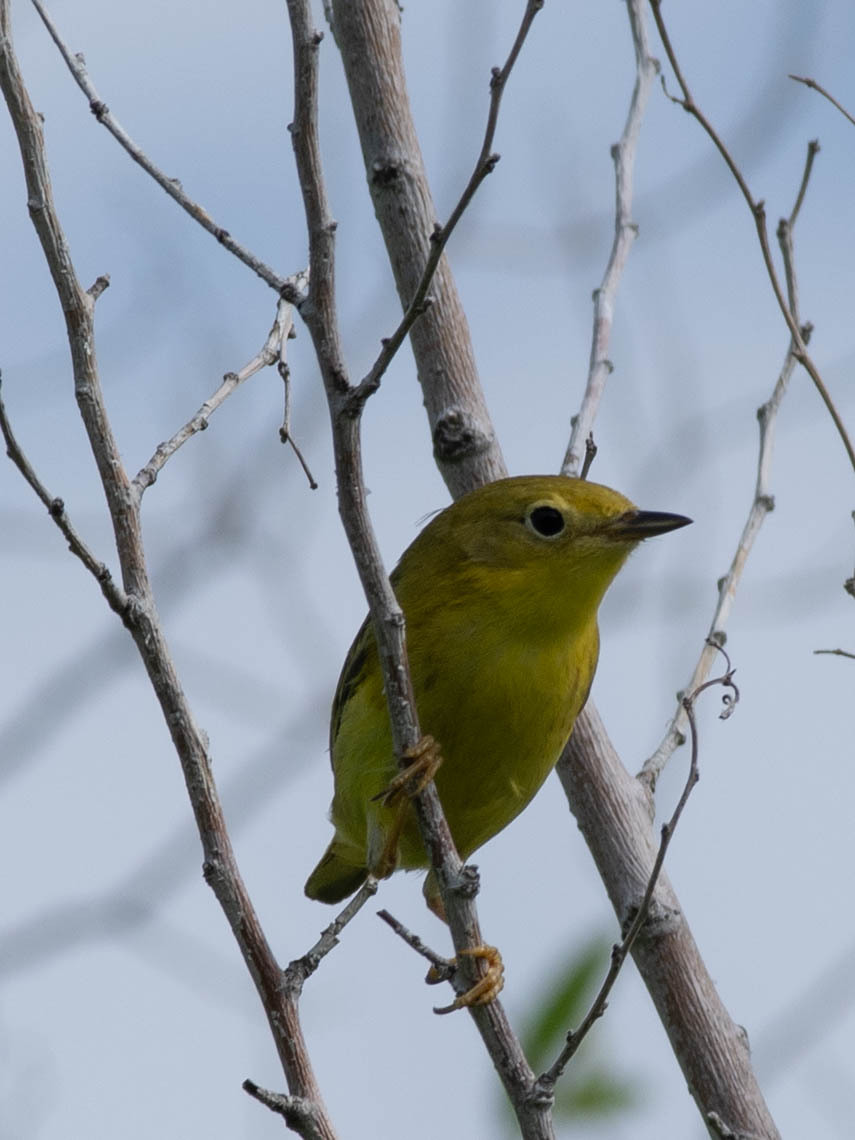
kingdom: Animalia
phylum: Chordata
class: Aves
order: Passeriformes
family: Parulidae
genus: Setophaga
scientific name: Setophaga petechia
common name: Yellow warbler
